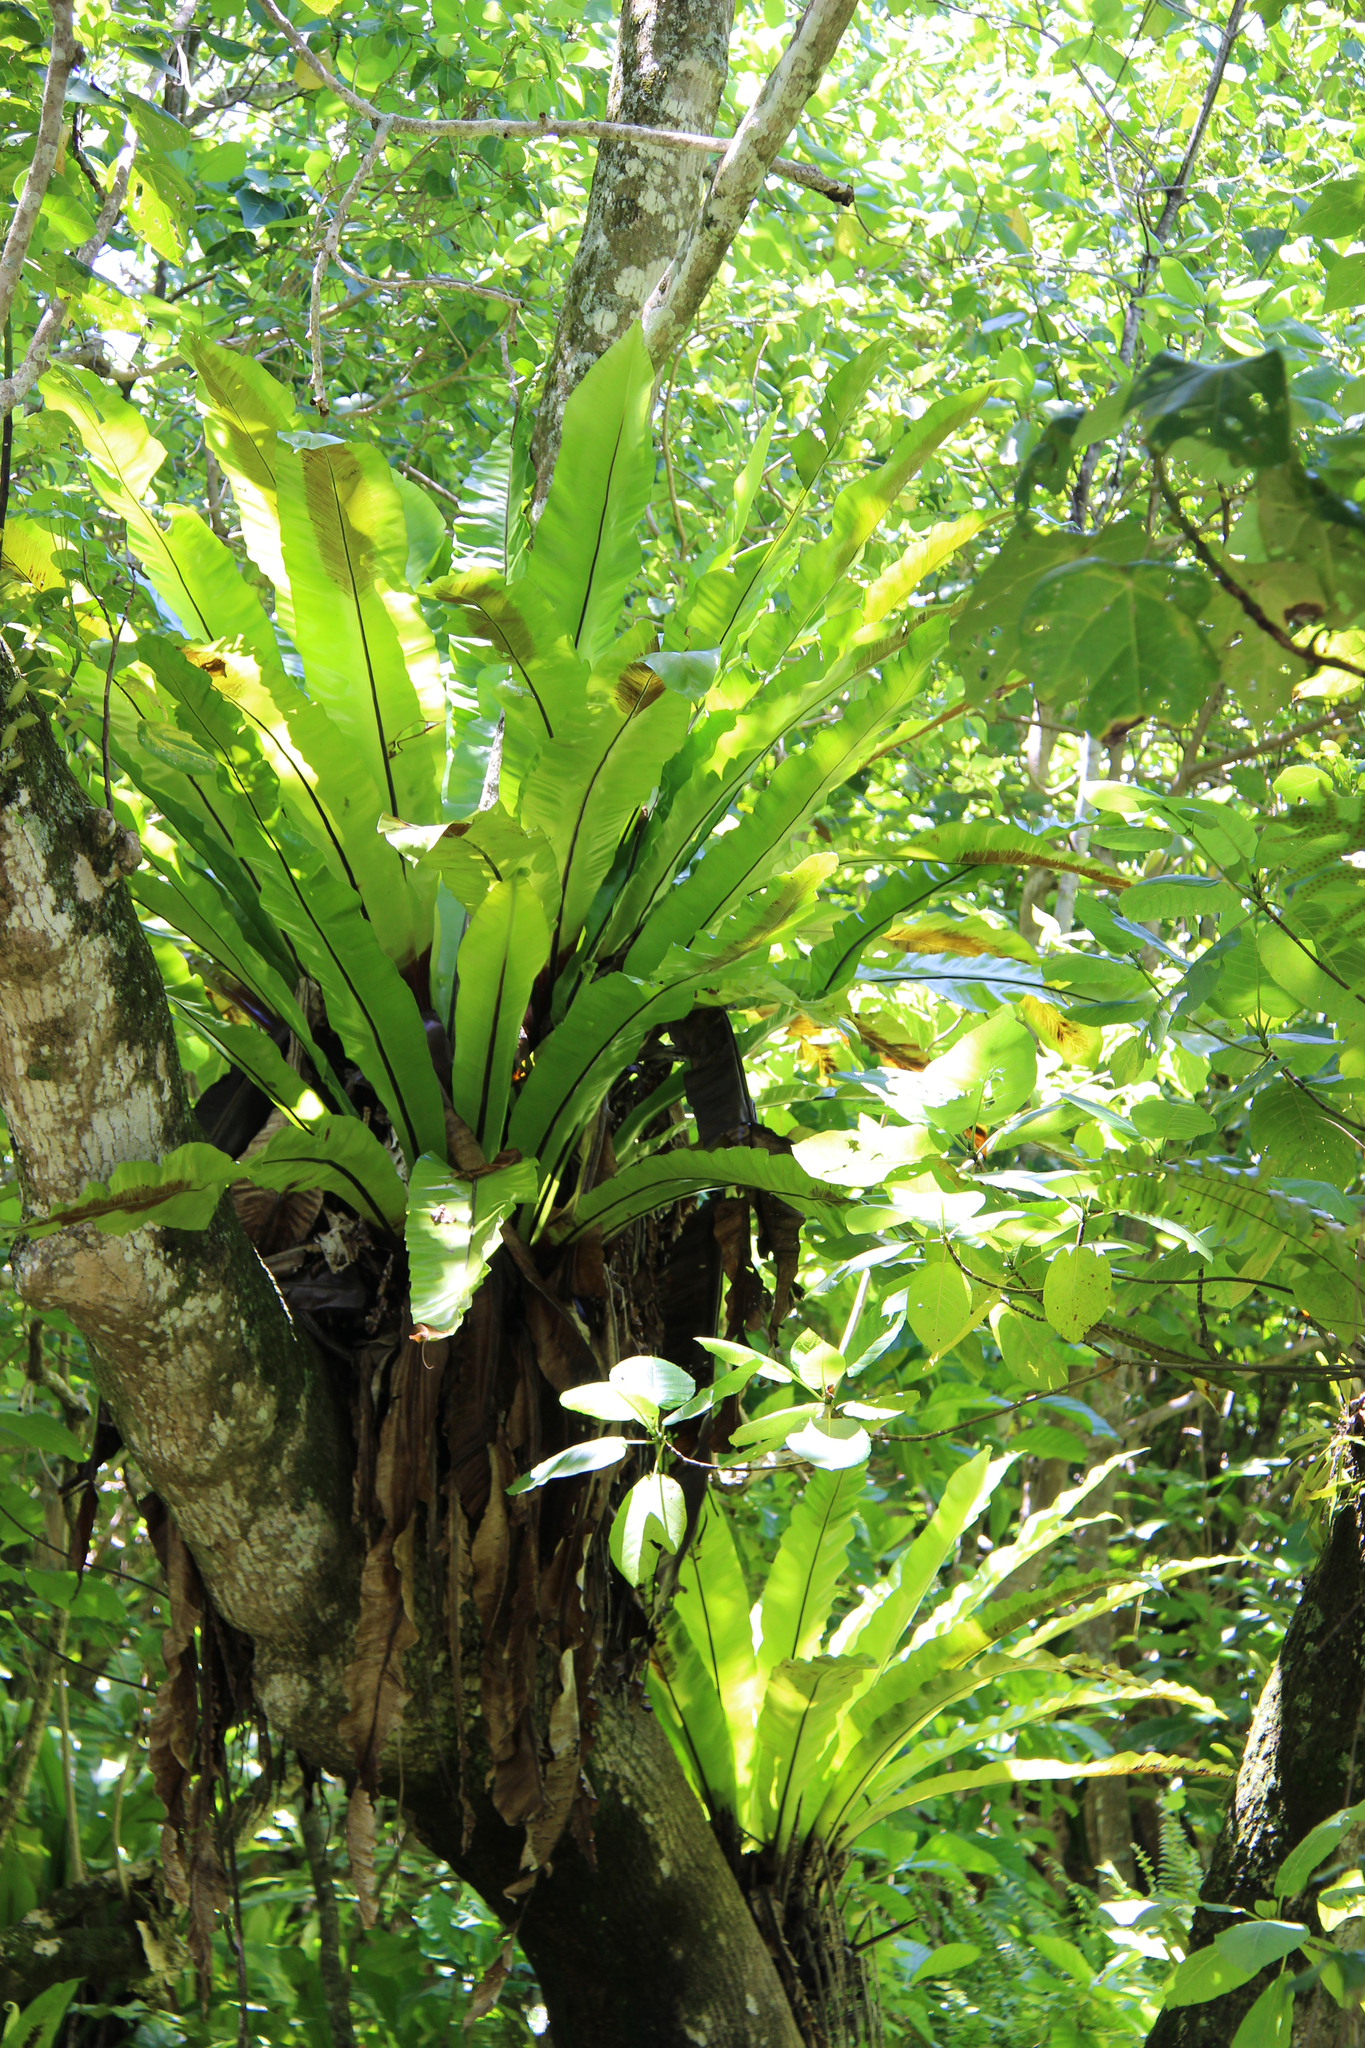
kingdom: Plantae
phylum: Tracheophyta
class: Polypodiopsida
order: Polypodiales
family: Aspleniaceae
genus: Asplenium
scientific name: Asplenium nidus
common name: Bird's-nest fern
